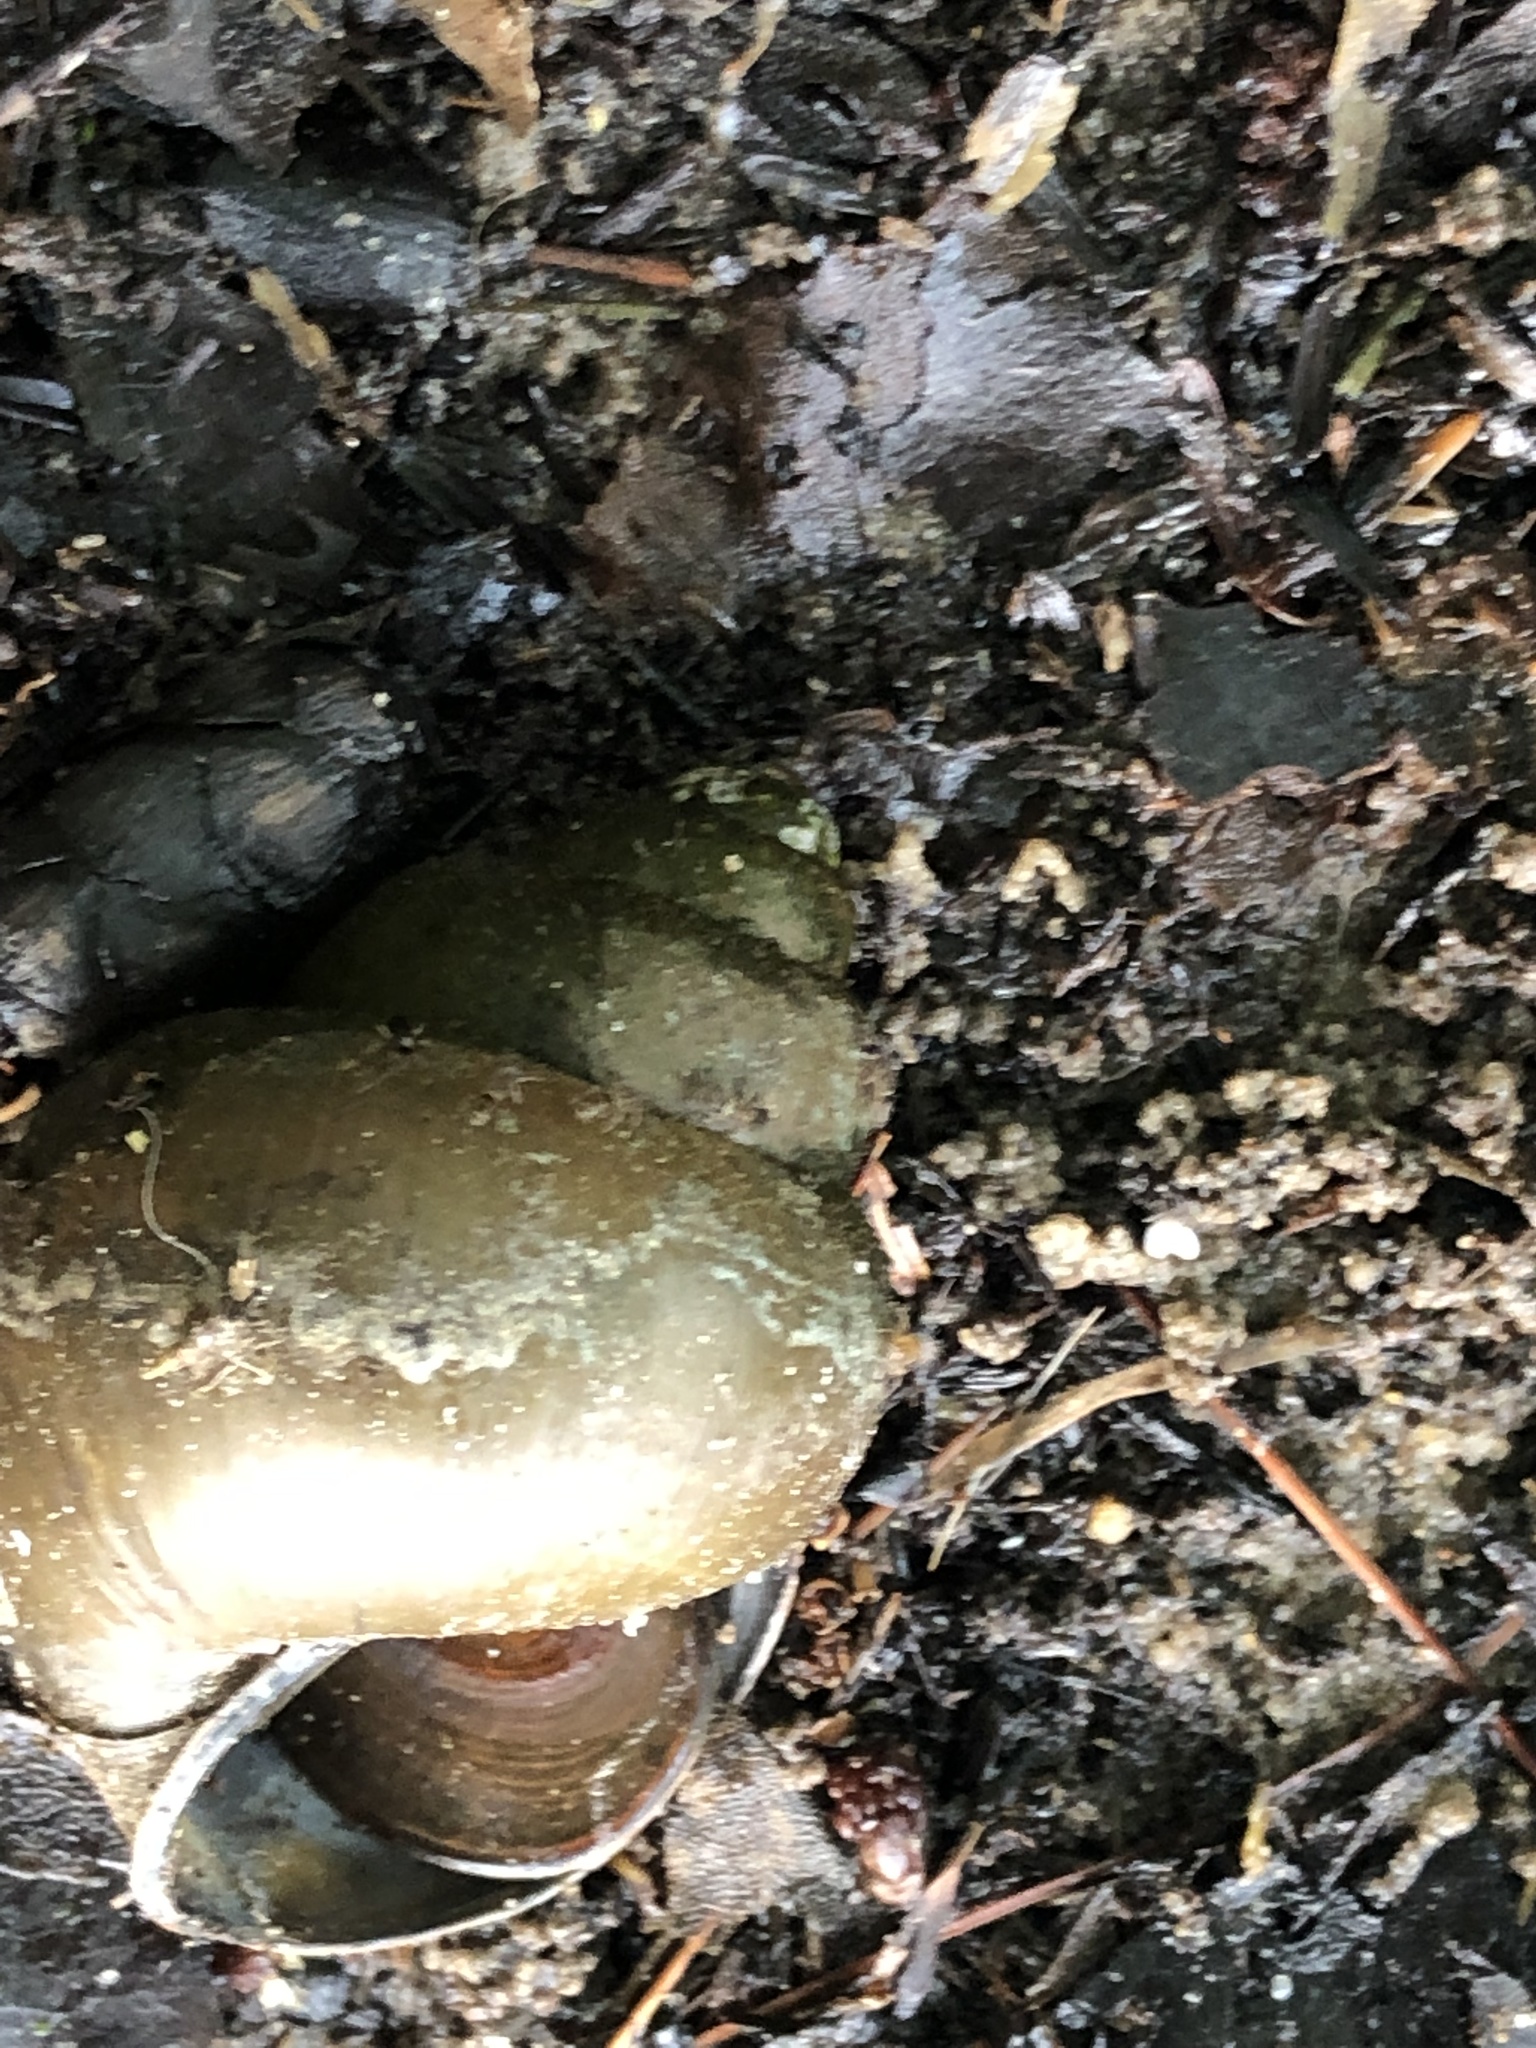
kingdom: Animalia
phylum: Mollusca
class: Gastropoda
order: Architaenioglossa
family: Viviparidae
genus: Cipangopaludina
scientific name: Cipangopaludina chinensis
